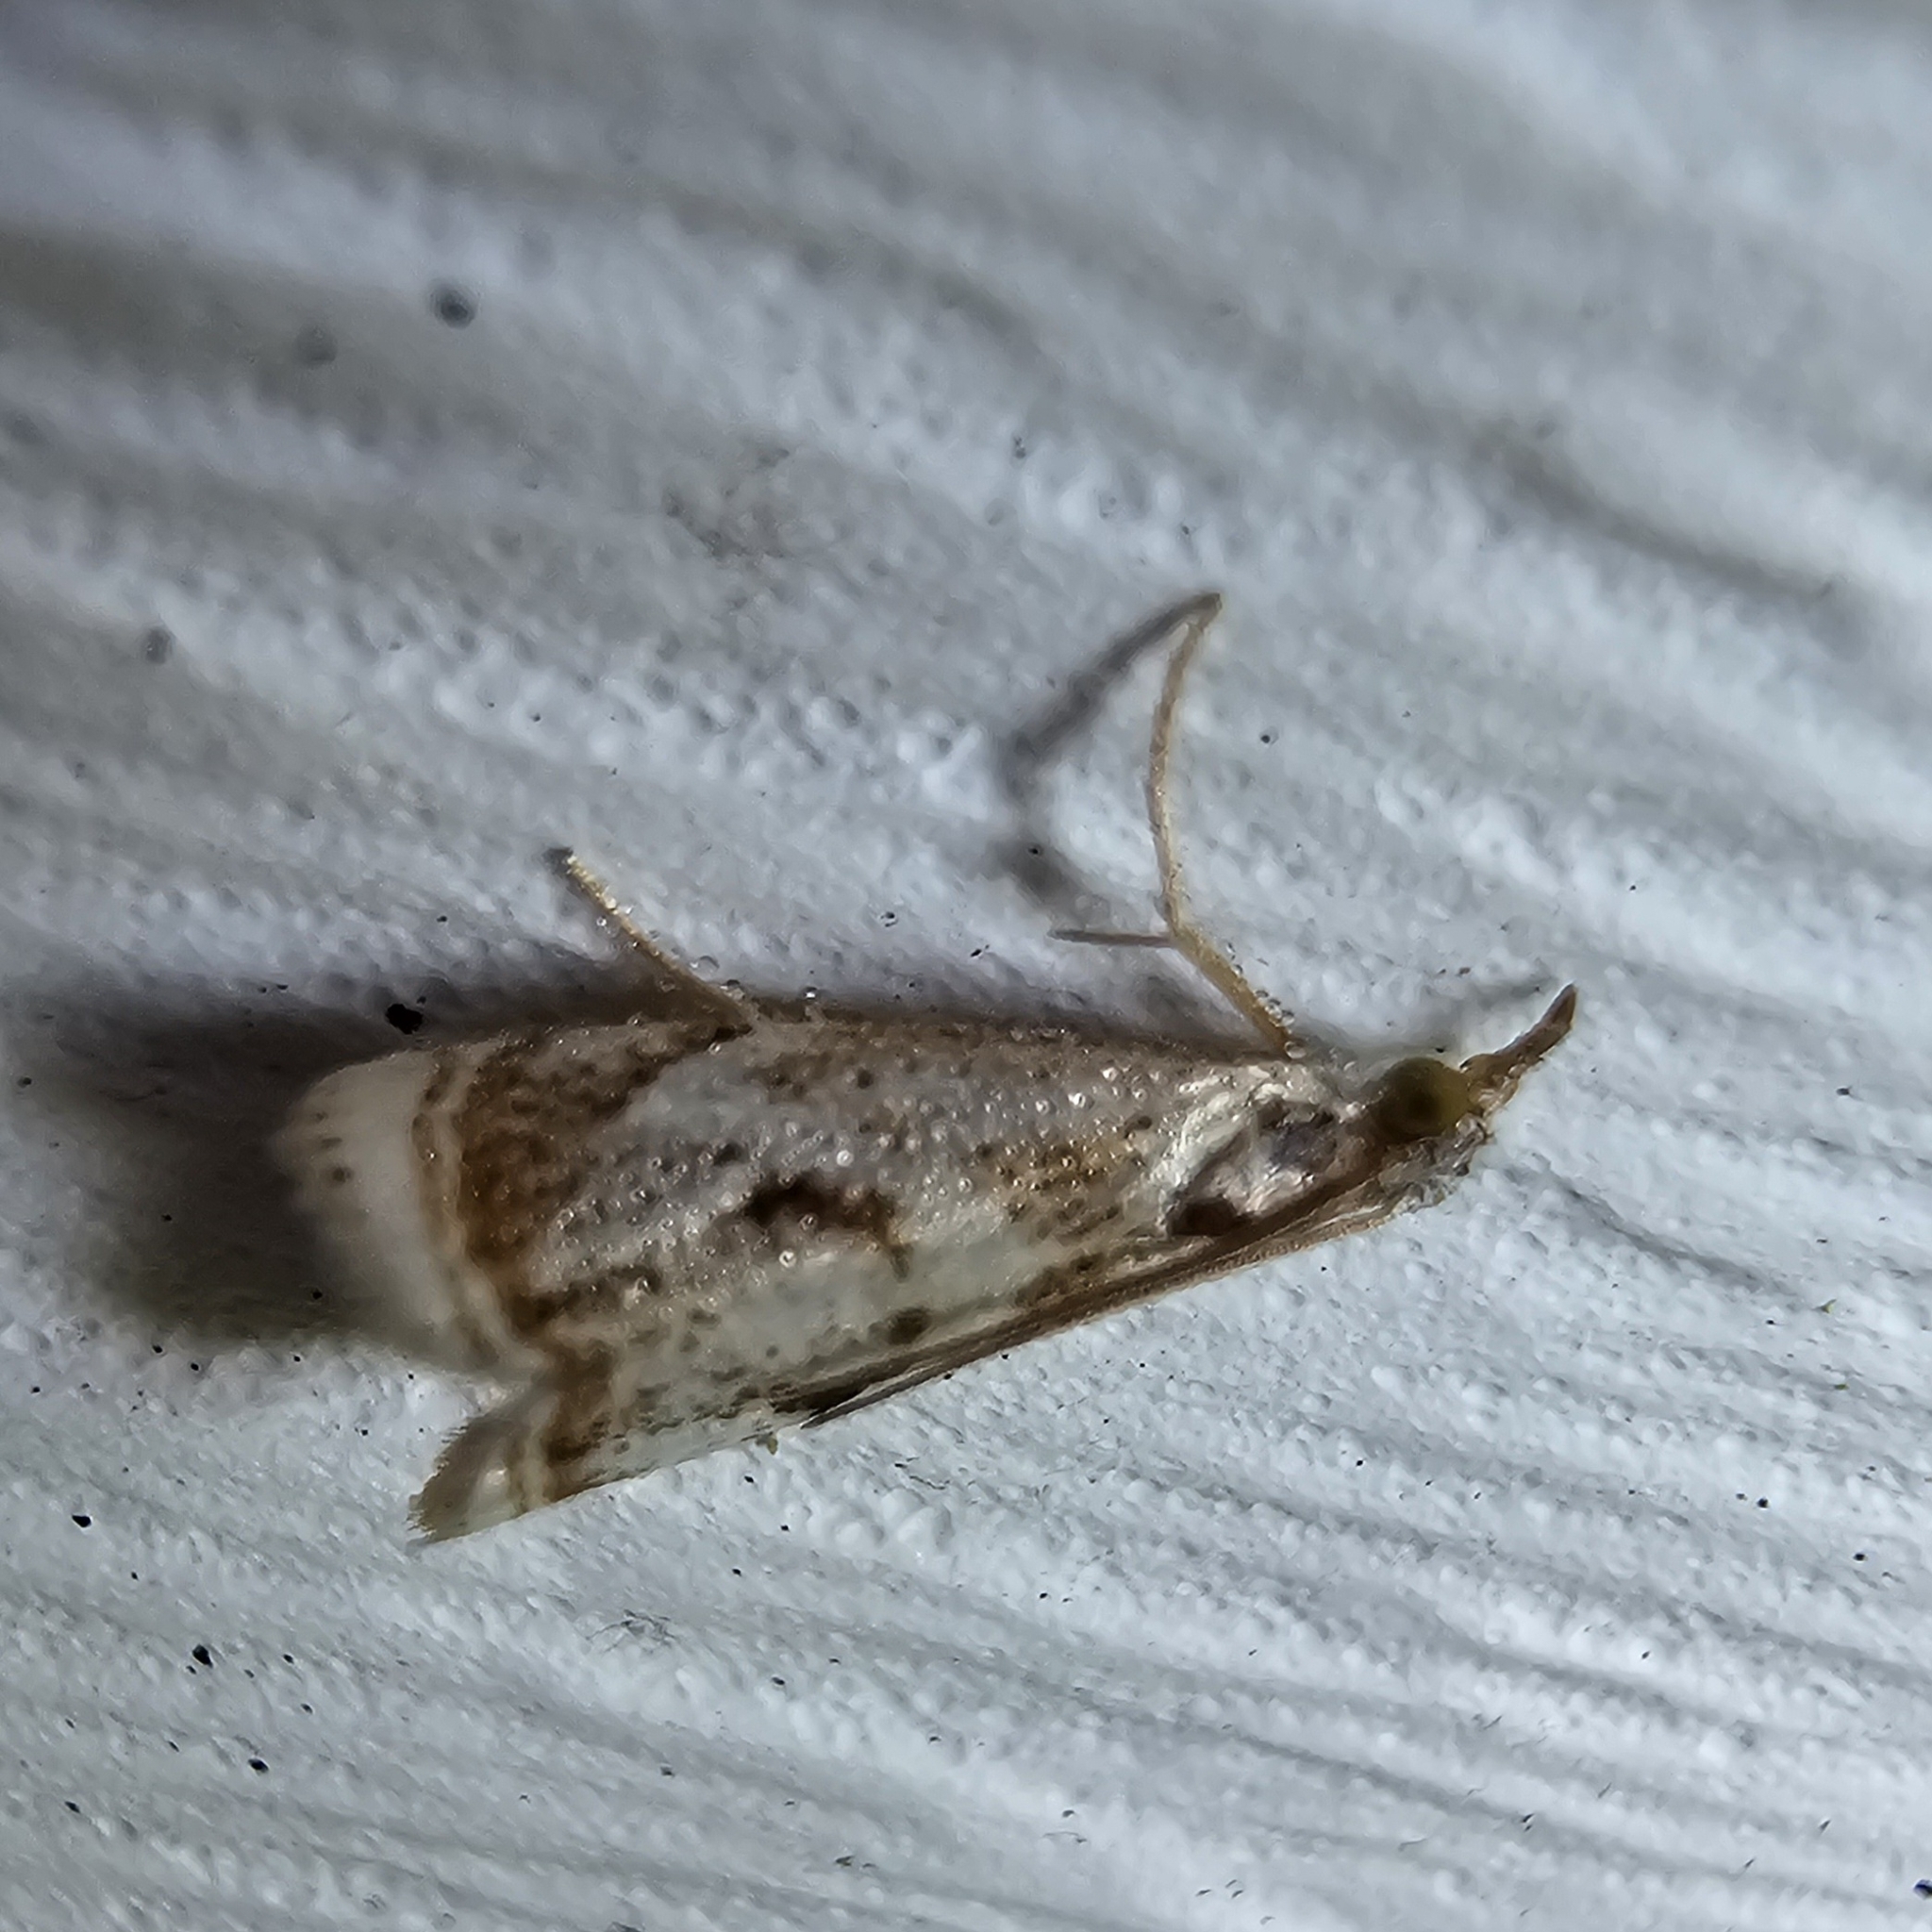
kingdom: Animalia
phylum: Arthropoda
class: Insecta
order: Lepidoptera
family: Crambidae
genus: Microcrambus
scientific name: Microcrambus elegans
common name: Elegant grass-veneer
